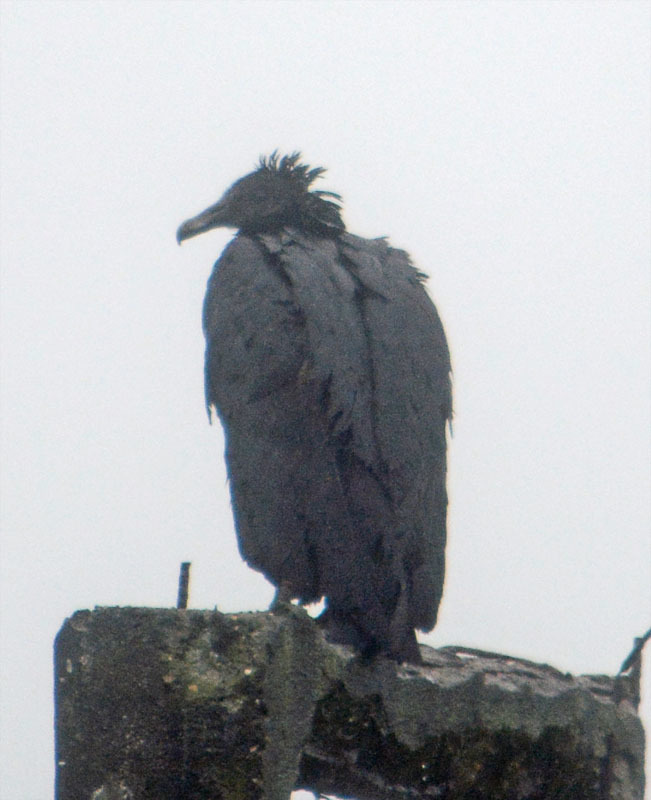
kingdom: Animalia
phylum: Chordata
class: Aves
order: Accipitriformes
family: Cathartidae
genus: Coragyps
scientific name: Coragyps atratus
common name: Black vulture
